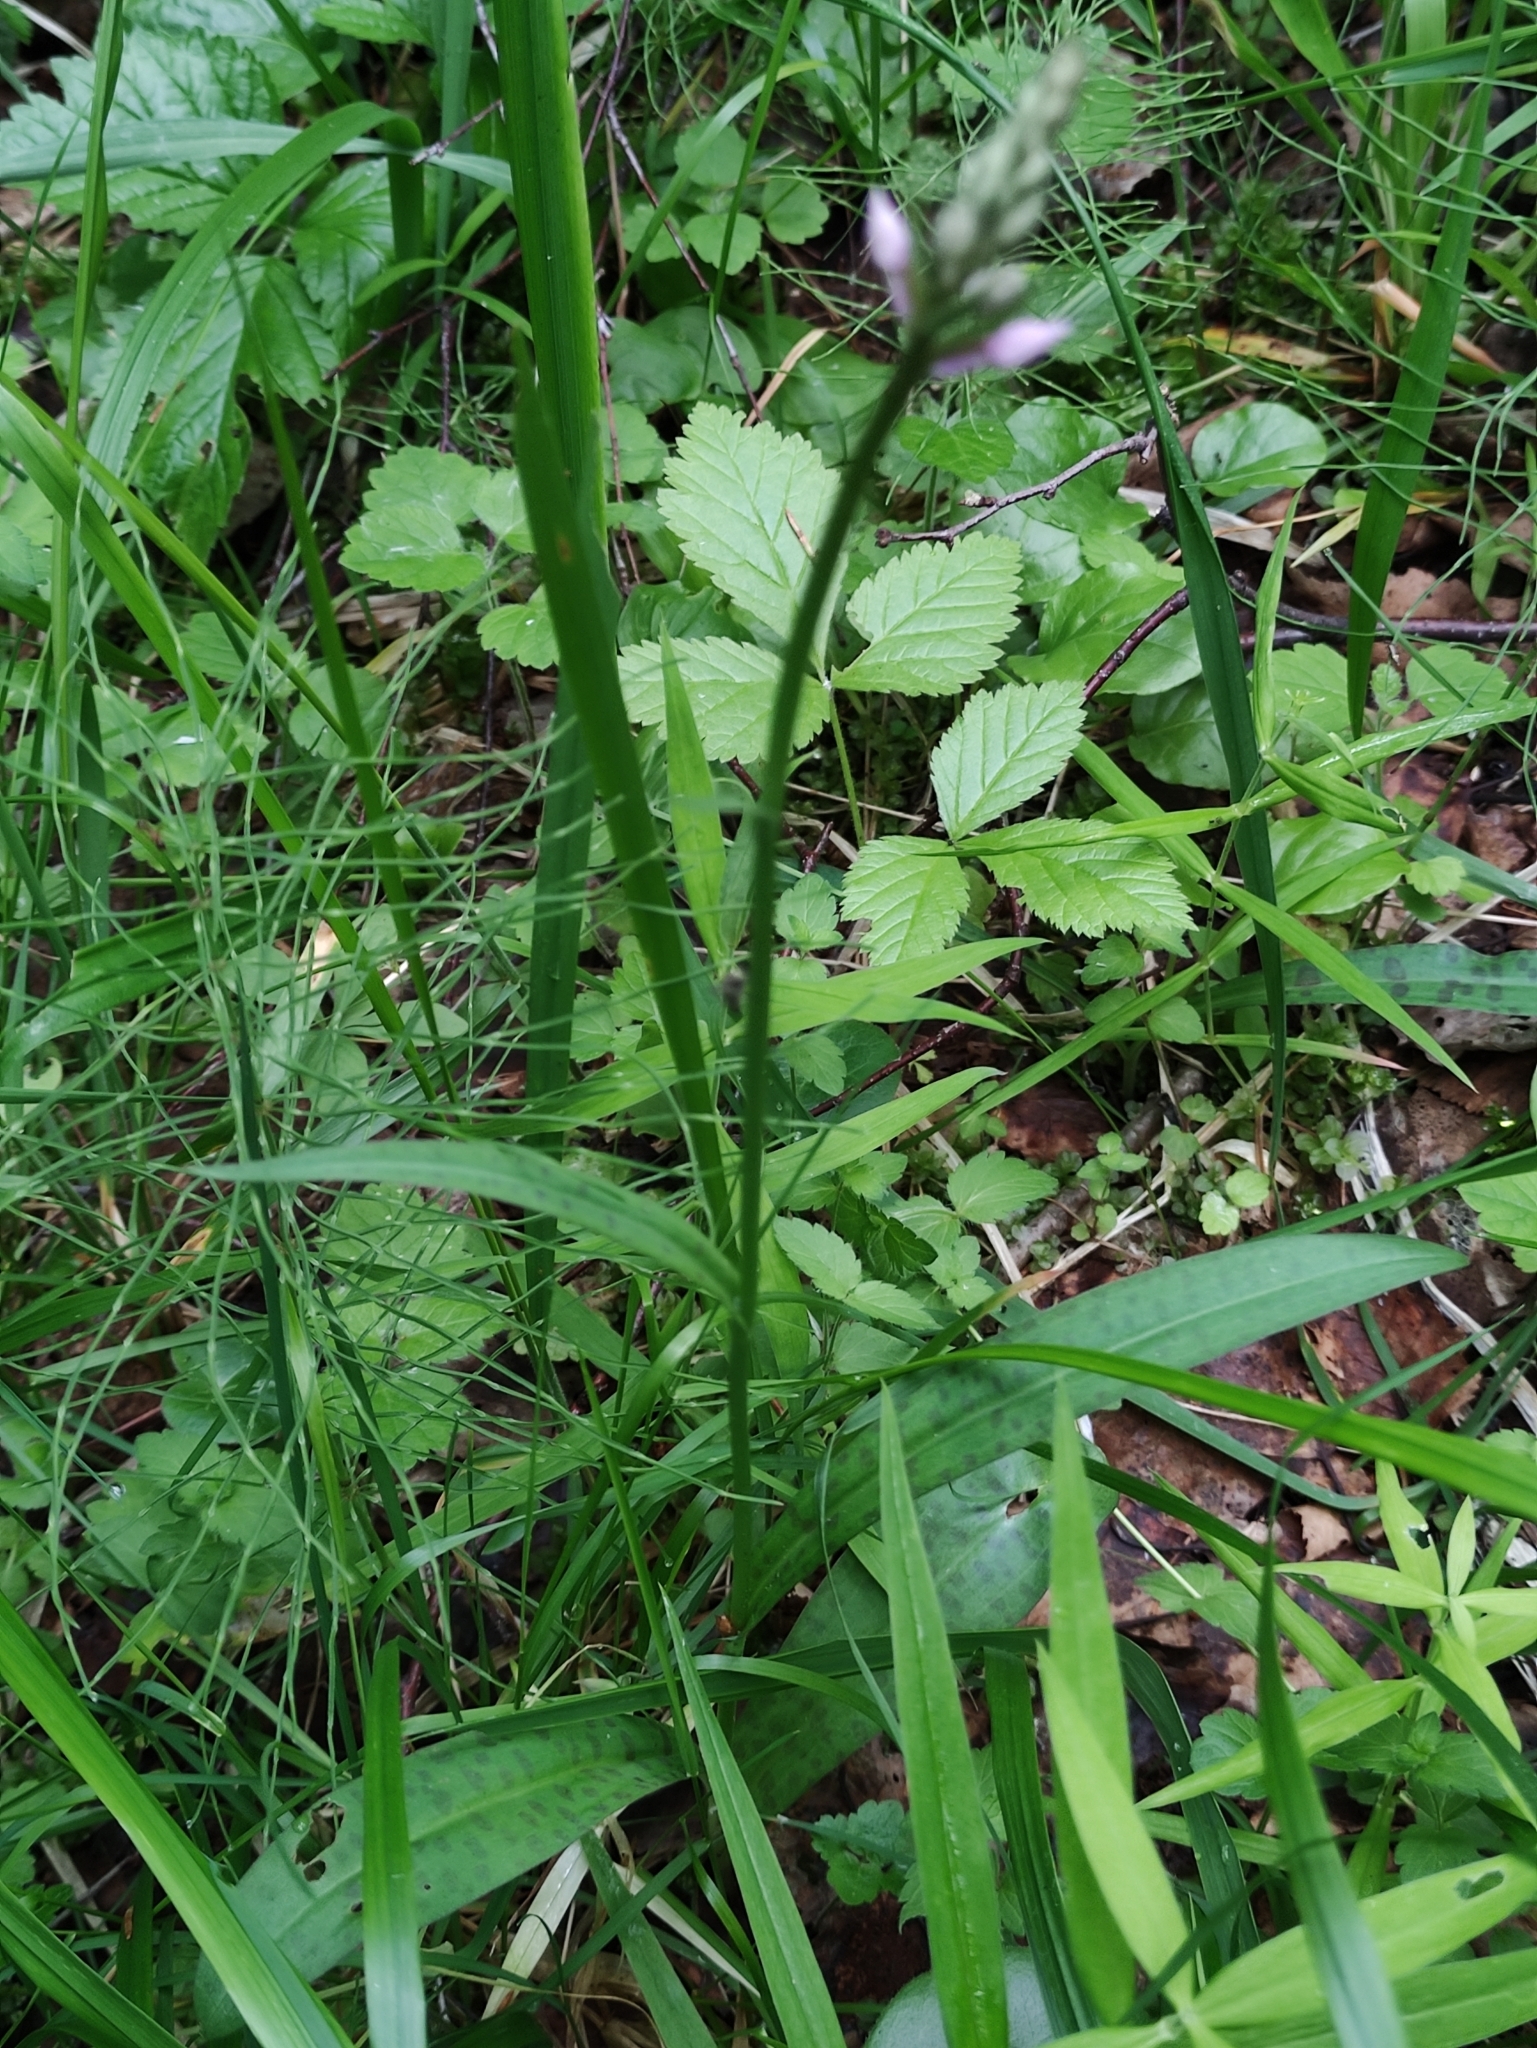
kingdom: Plantae
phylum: Tracheophyta
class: Liliopsida
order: Asparagales
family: Orchidaceae
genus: Dactylorhiza
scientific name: Dactylorhiza maculata
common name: Heath spotted-orchid
